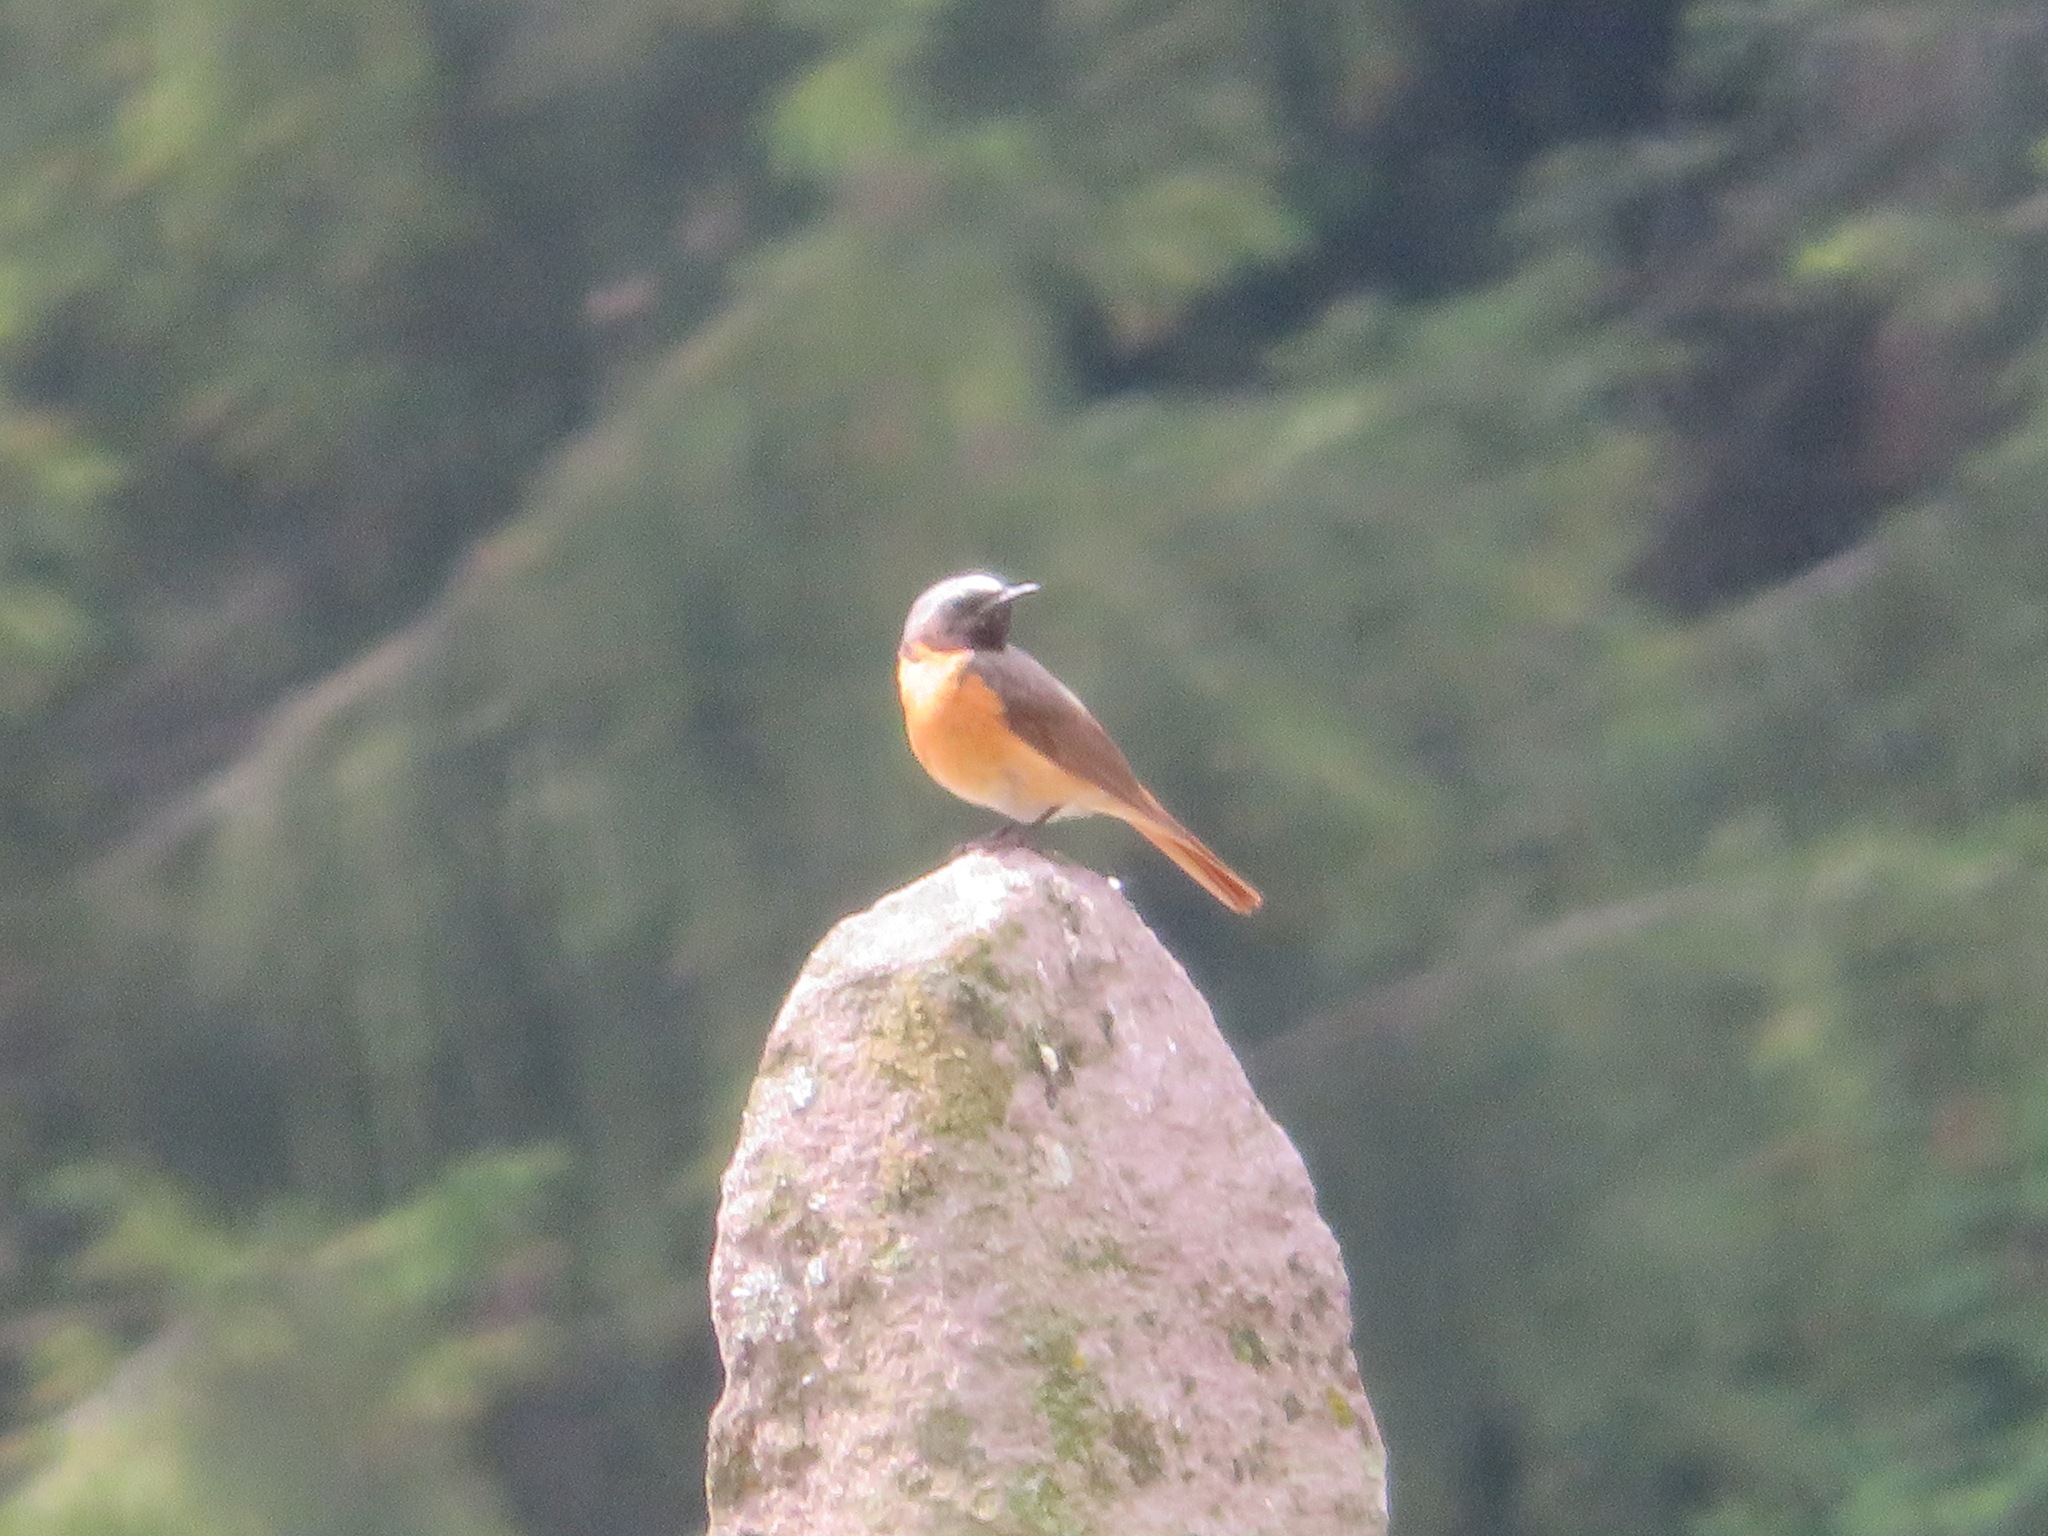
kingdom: Animalia
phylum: Chordata
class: Aves
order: Passeriformes
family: Muscicapidae
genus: Phoenicurus
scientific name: Phoenicurus phoenicurus
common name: Common redstart
